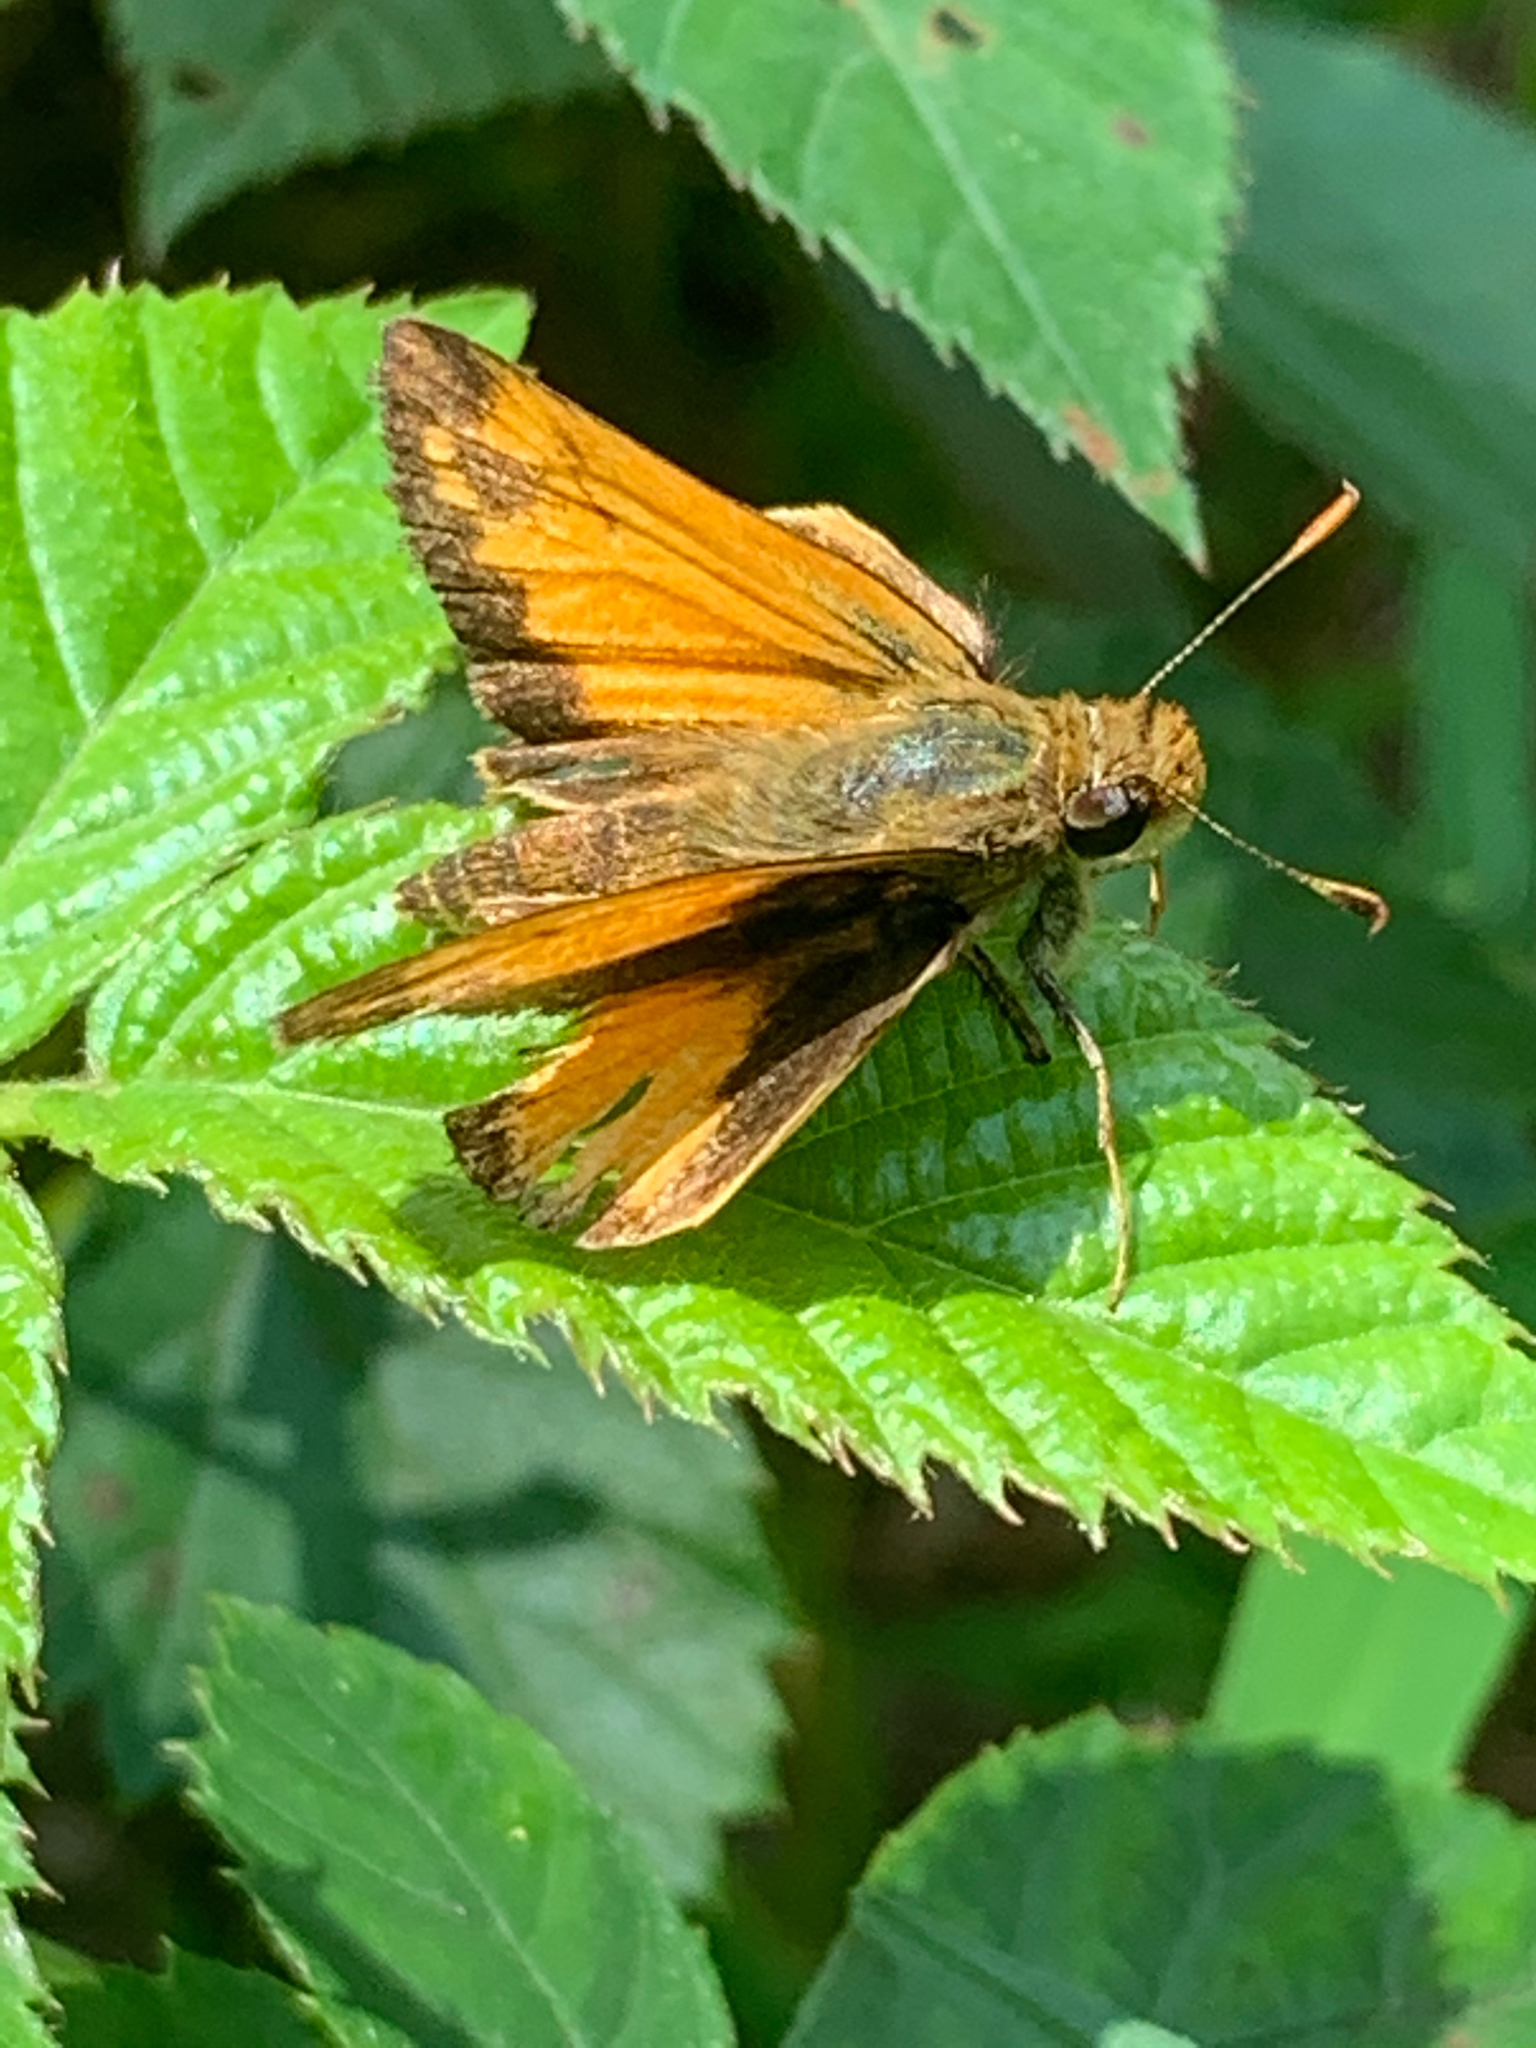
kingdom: Animalia
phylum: Arthropoda
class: Insecta
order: Lepidoptera
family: Hesperiidae
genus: Lon
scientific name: Lon zabulon
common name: Zabulon skipper
